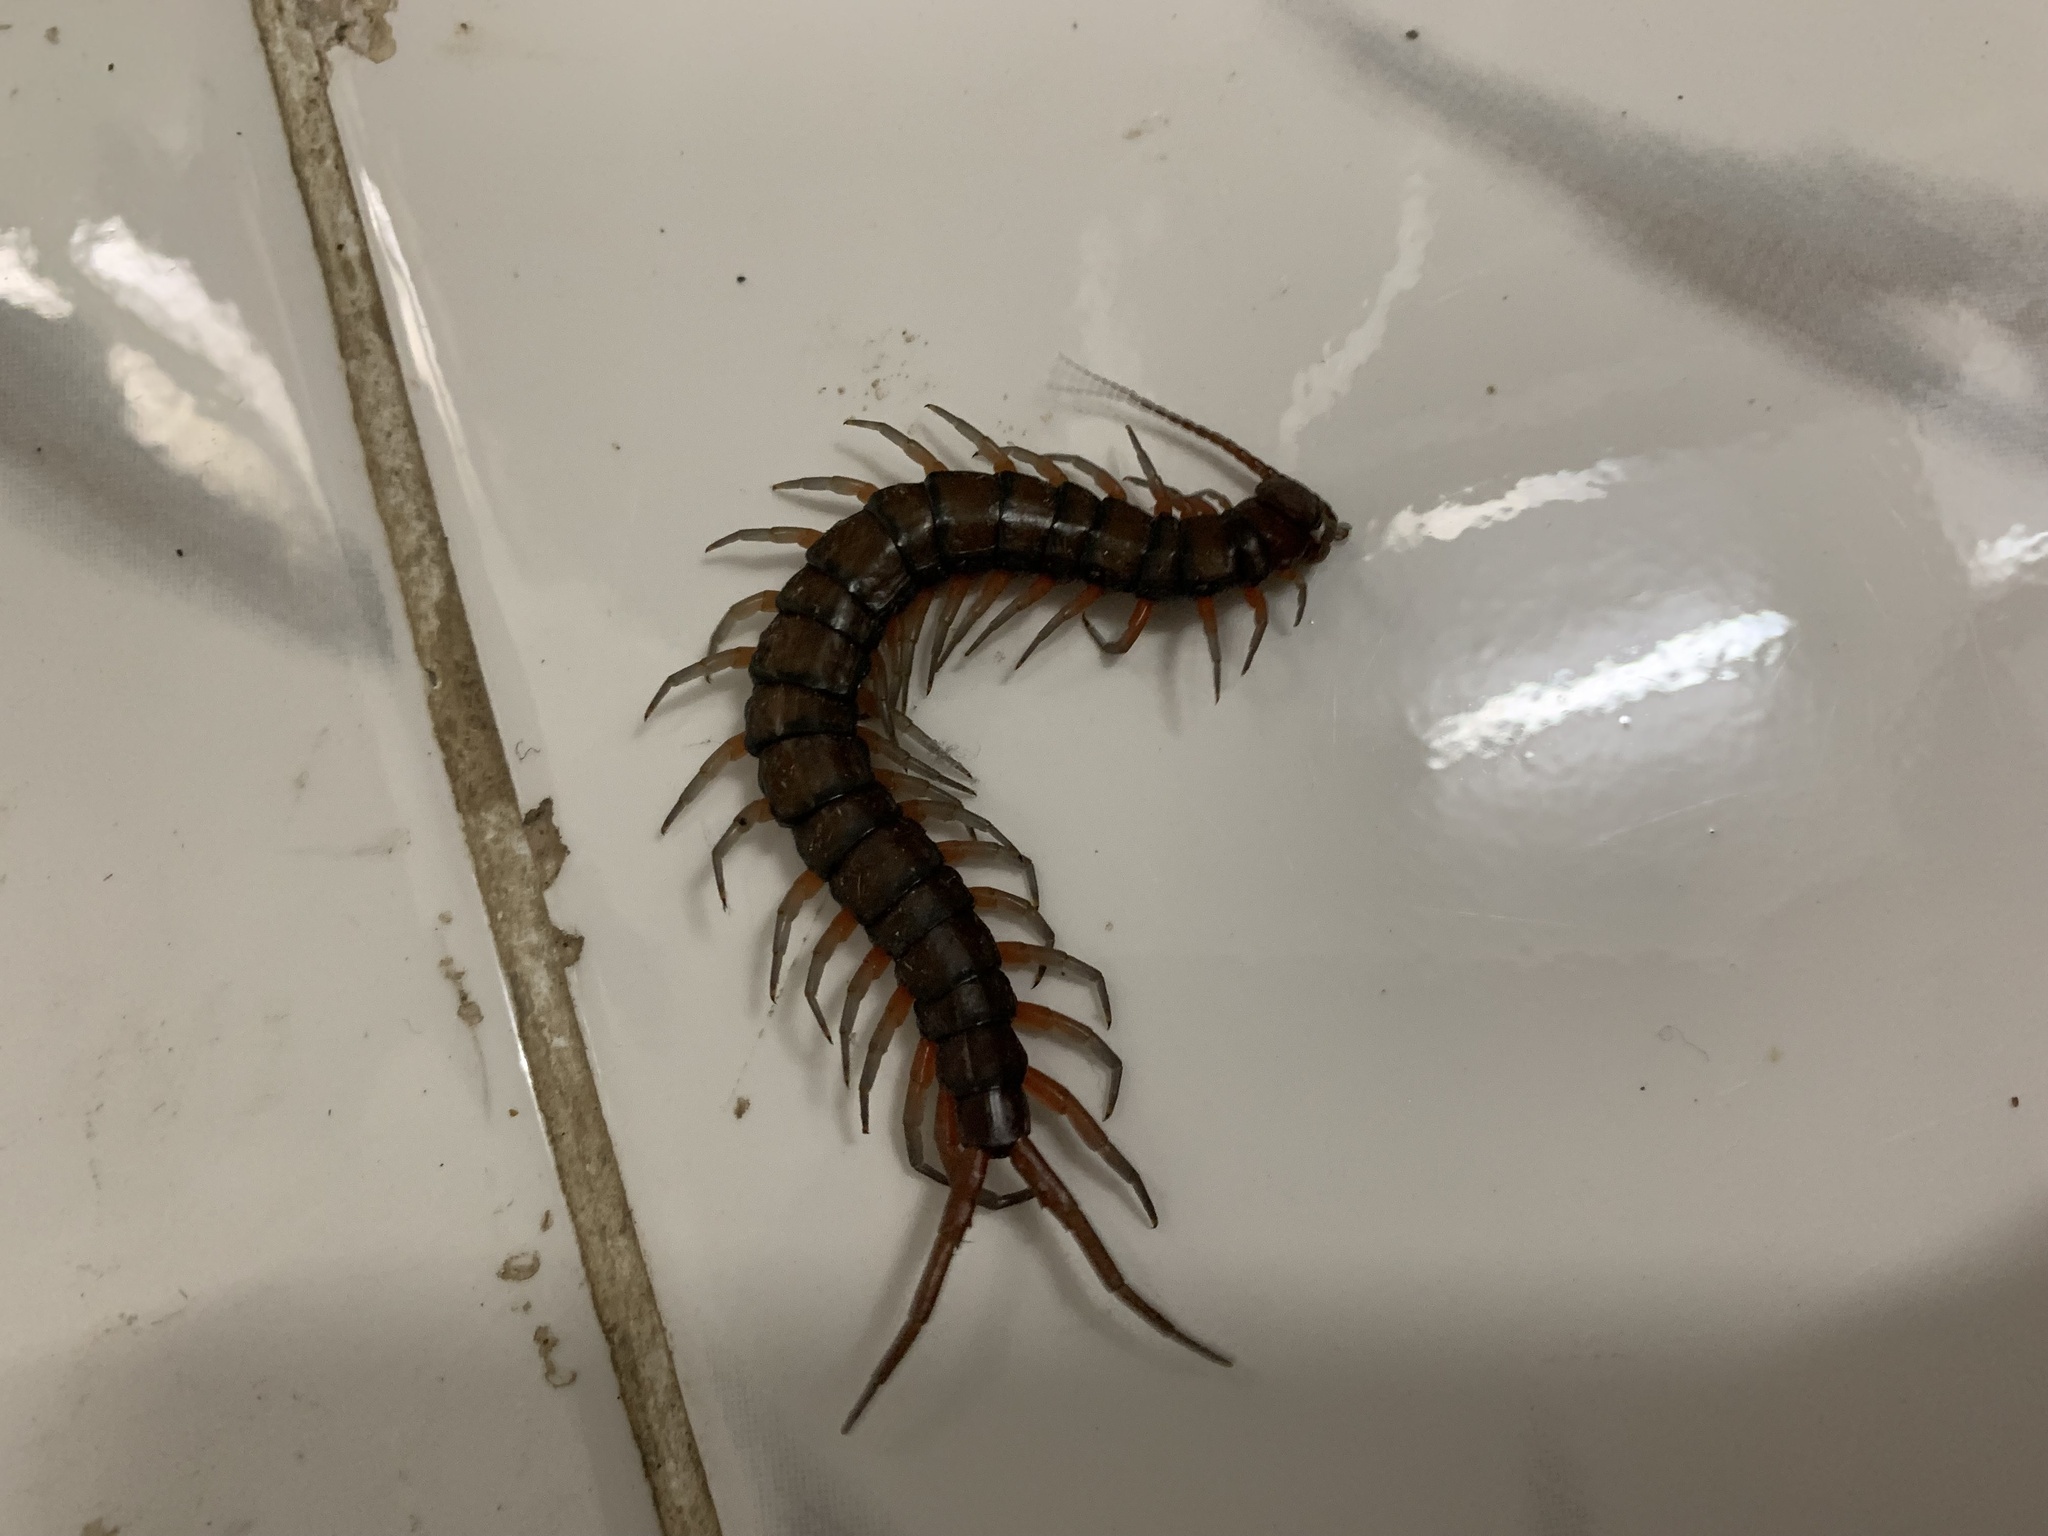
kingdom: Animalia
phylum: Arthropoda
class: Chilopoda
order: Scolopendromorpha
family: Scolopendridae
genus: Scolopendra
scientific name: Scolopendra subspinipes
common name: Centipede
